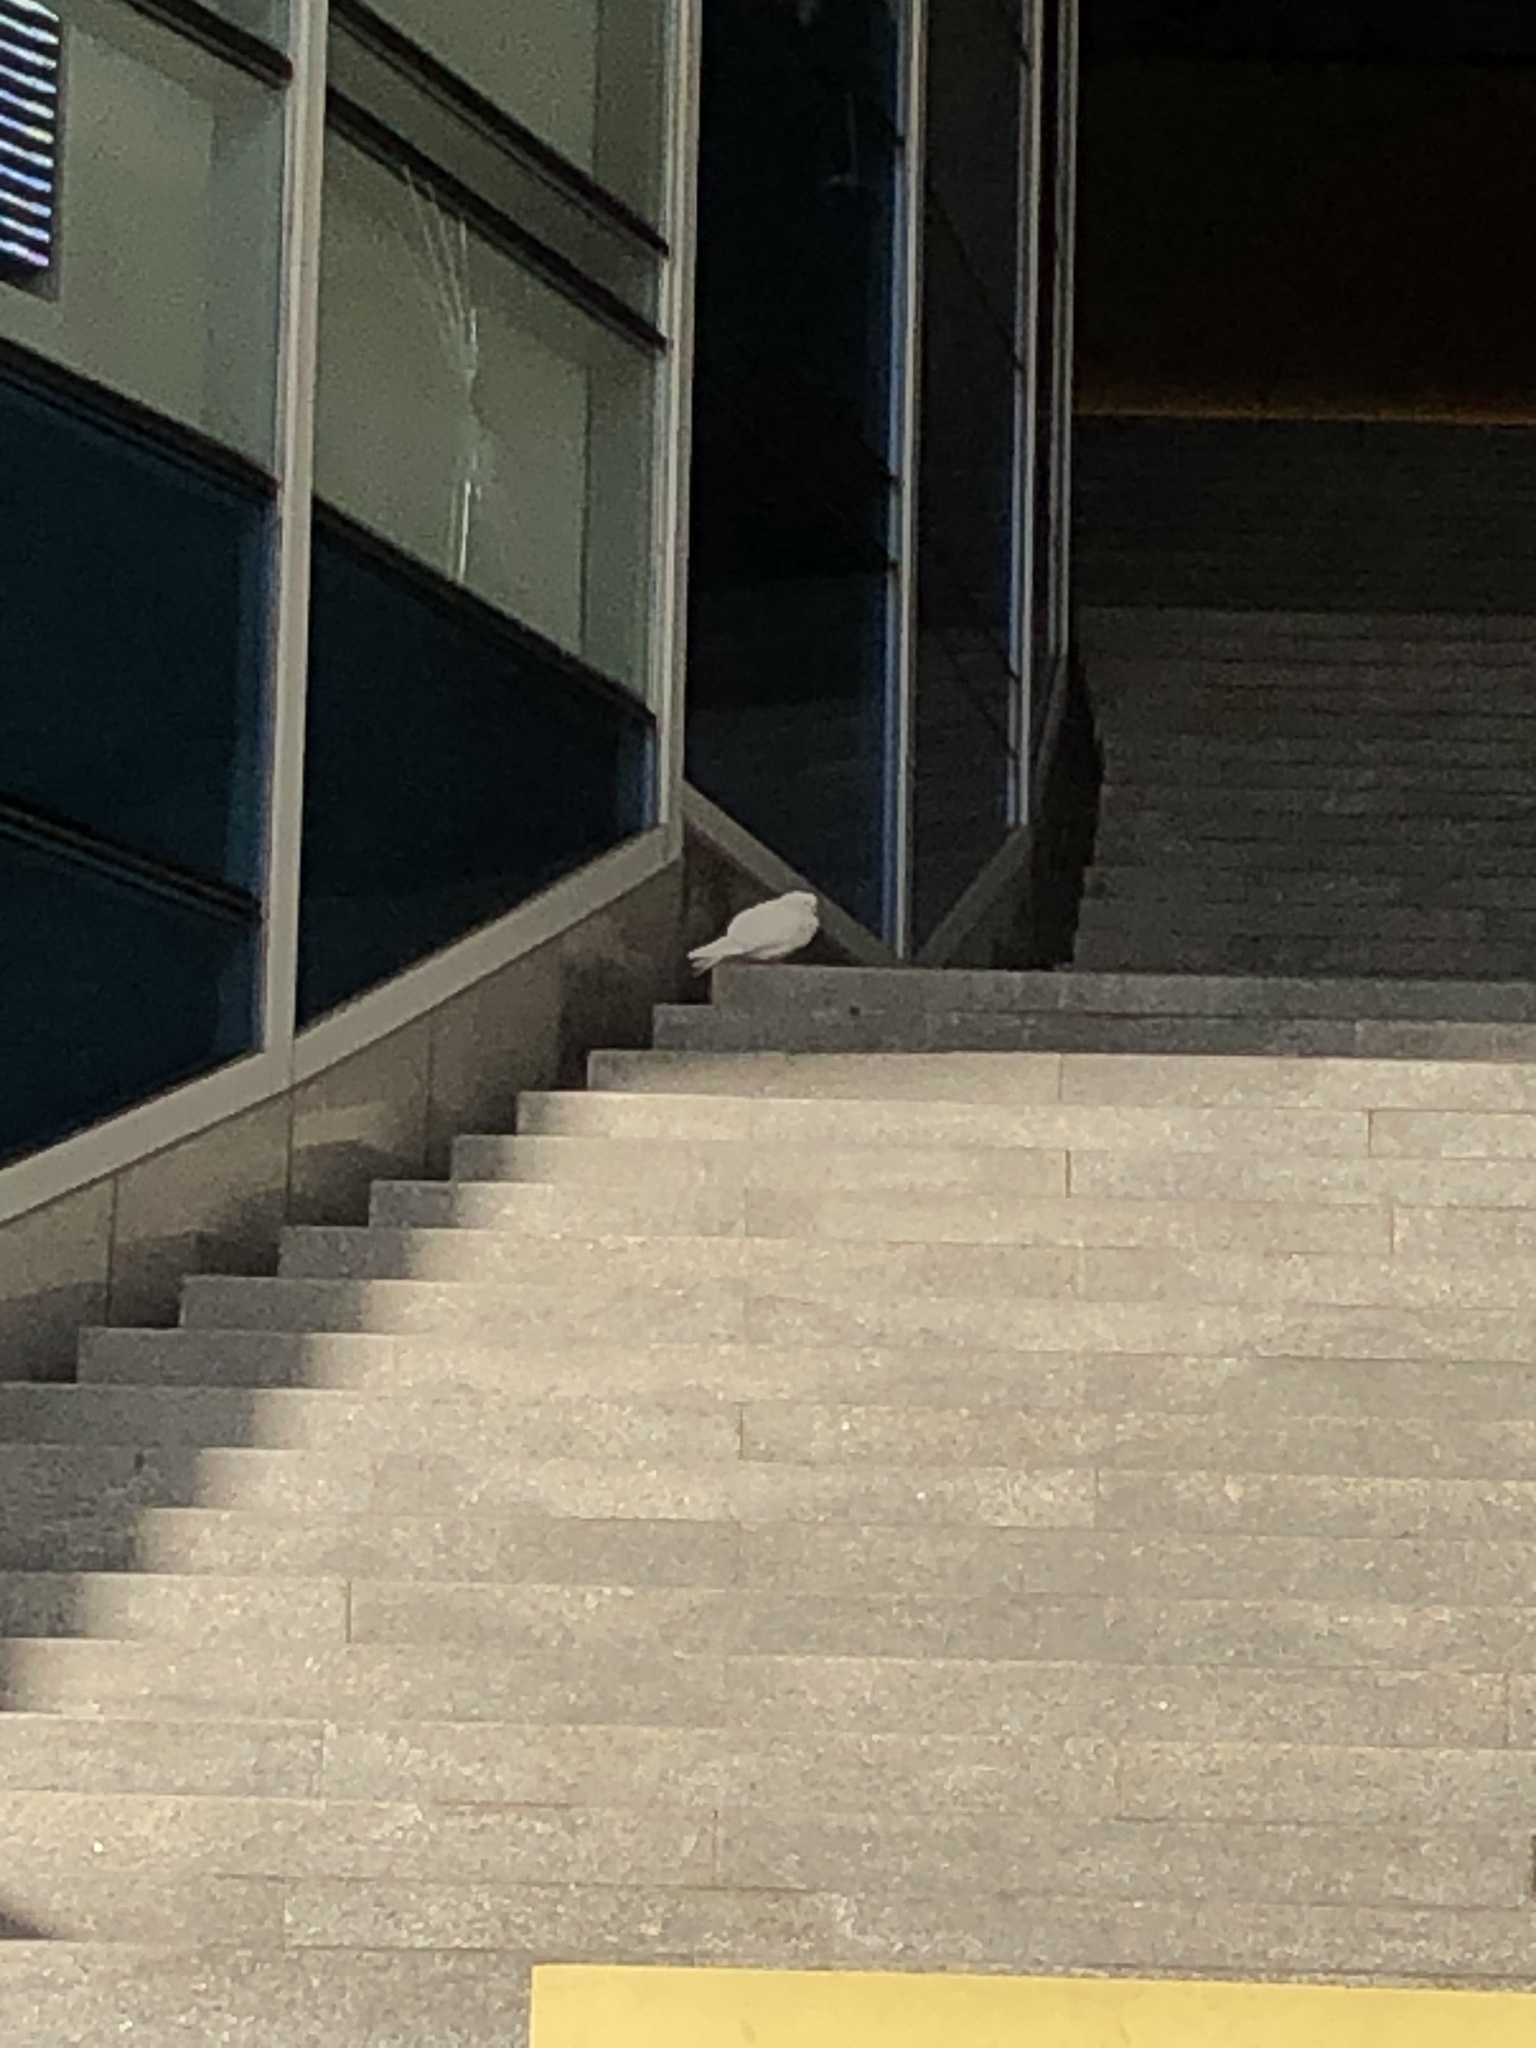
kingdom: Animalia
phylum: Chordata
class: Aves
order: Columbiformes
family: Columbidae
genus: Columba
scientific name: Columba livia
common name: Rock pigeon
